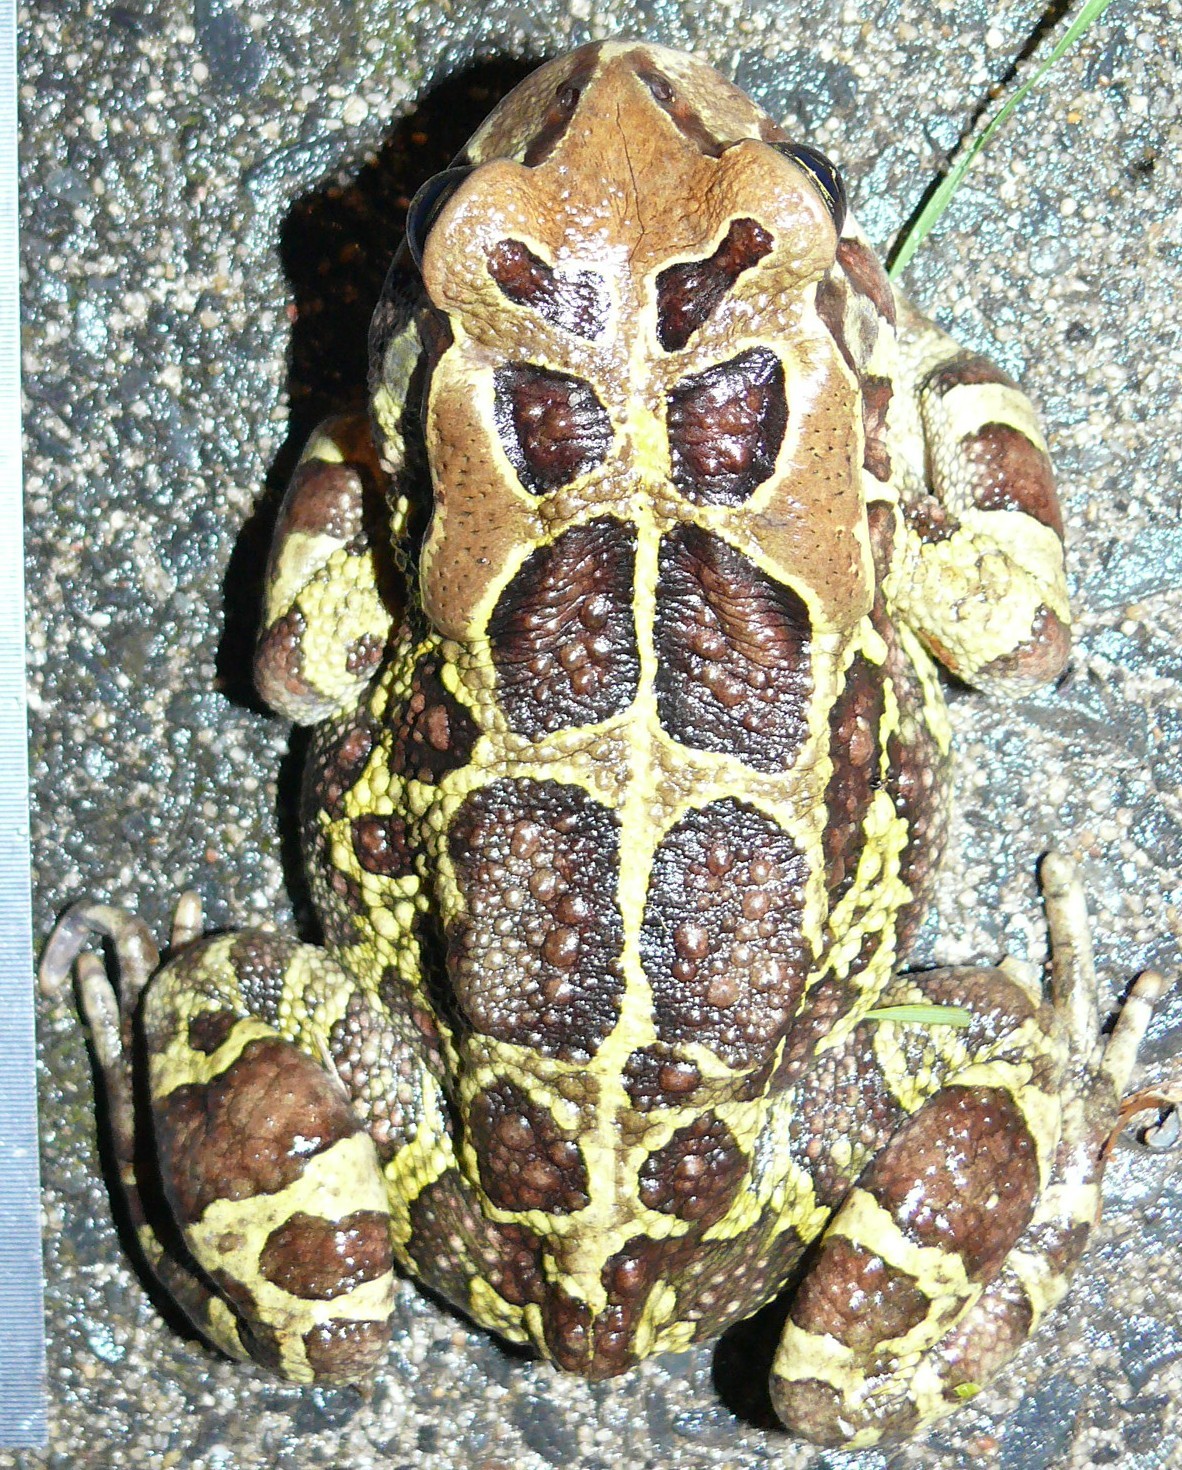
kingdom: Animalia
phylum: Chordata
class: Amphibia
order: Anura
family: Bufonidae
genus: Sclerophrys
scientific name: Sclerophrys pantherina
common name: Panther toad
